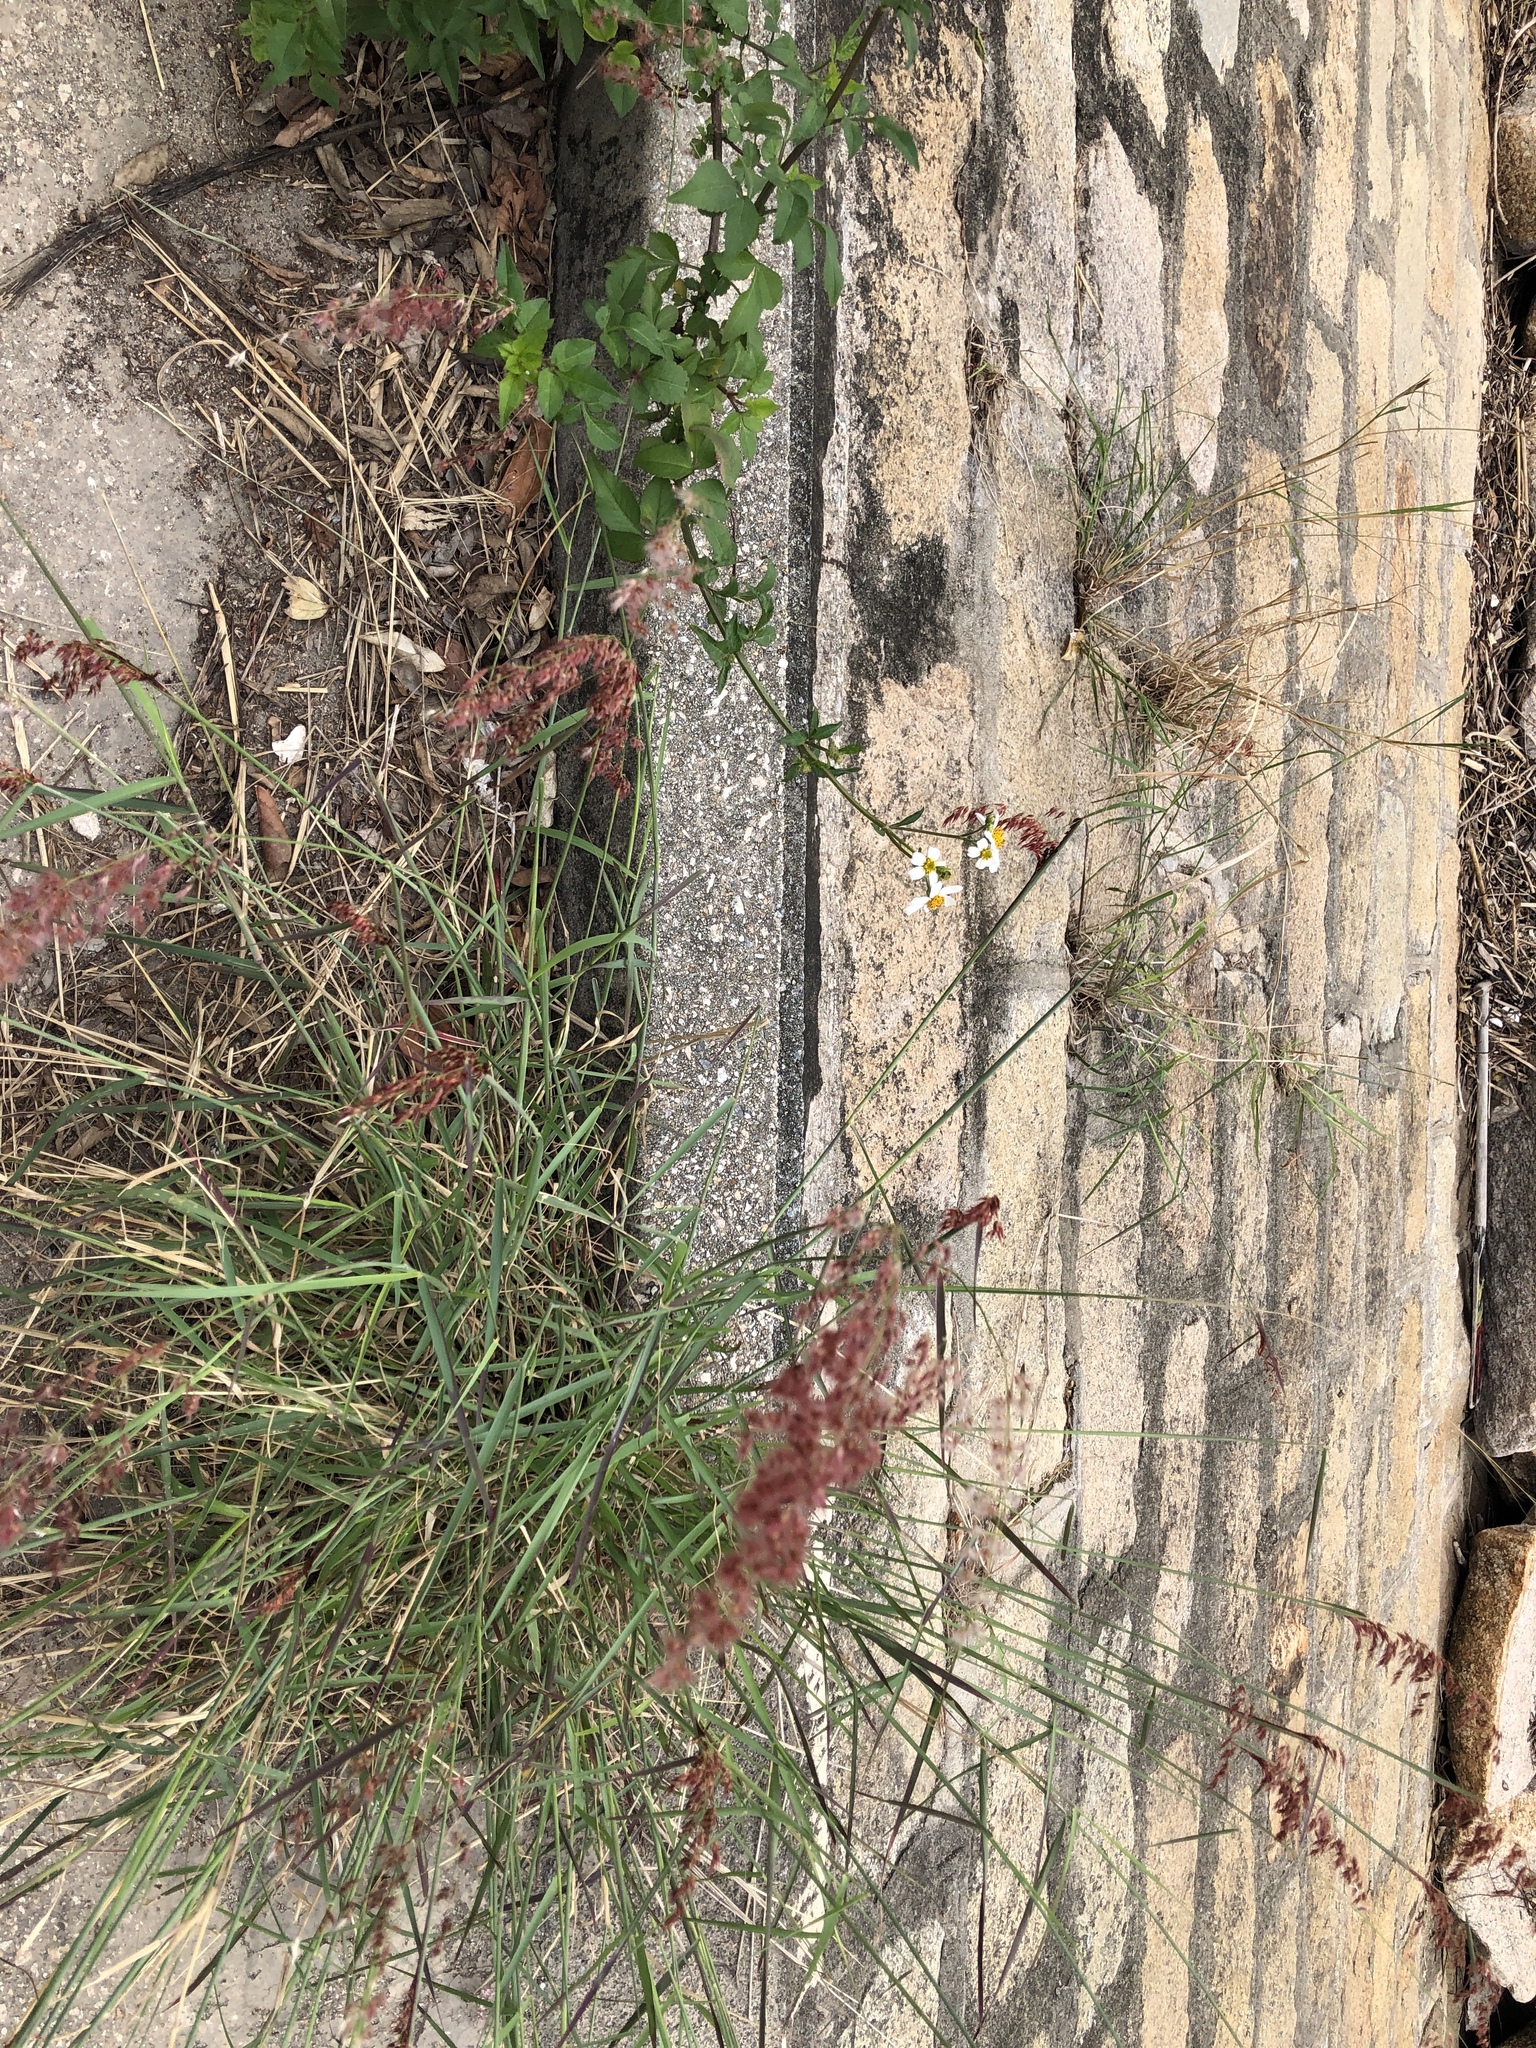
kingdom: Plantae
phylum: Tracheophyta
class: Liliopsida
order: Poales
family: Poaceae
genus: Melinis
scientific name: Melinis repens
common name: Rose natal grass
